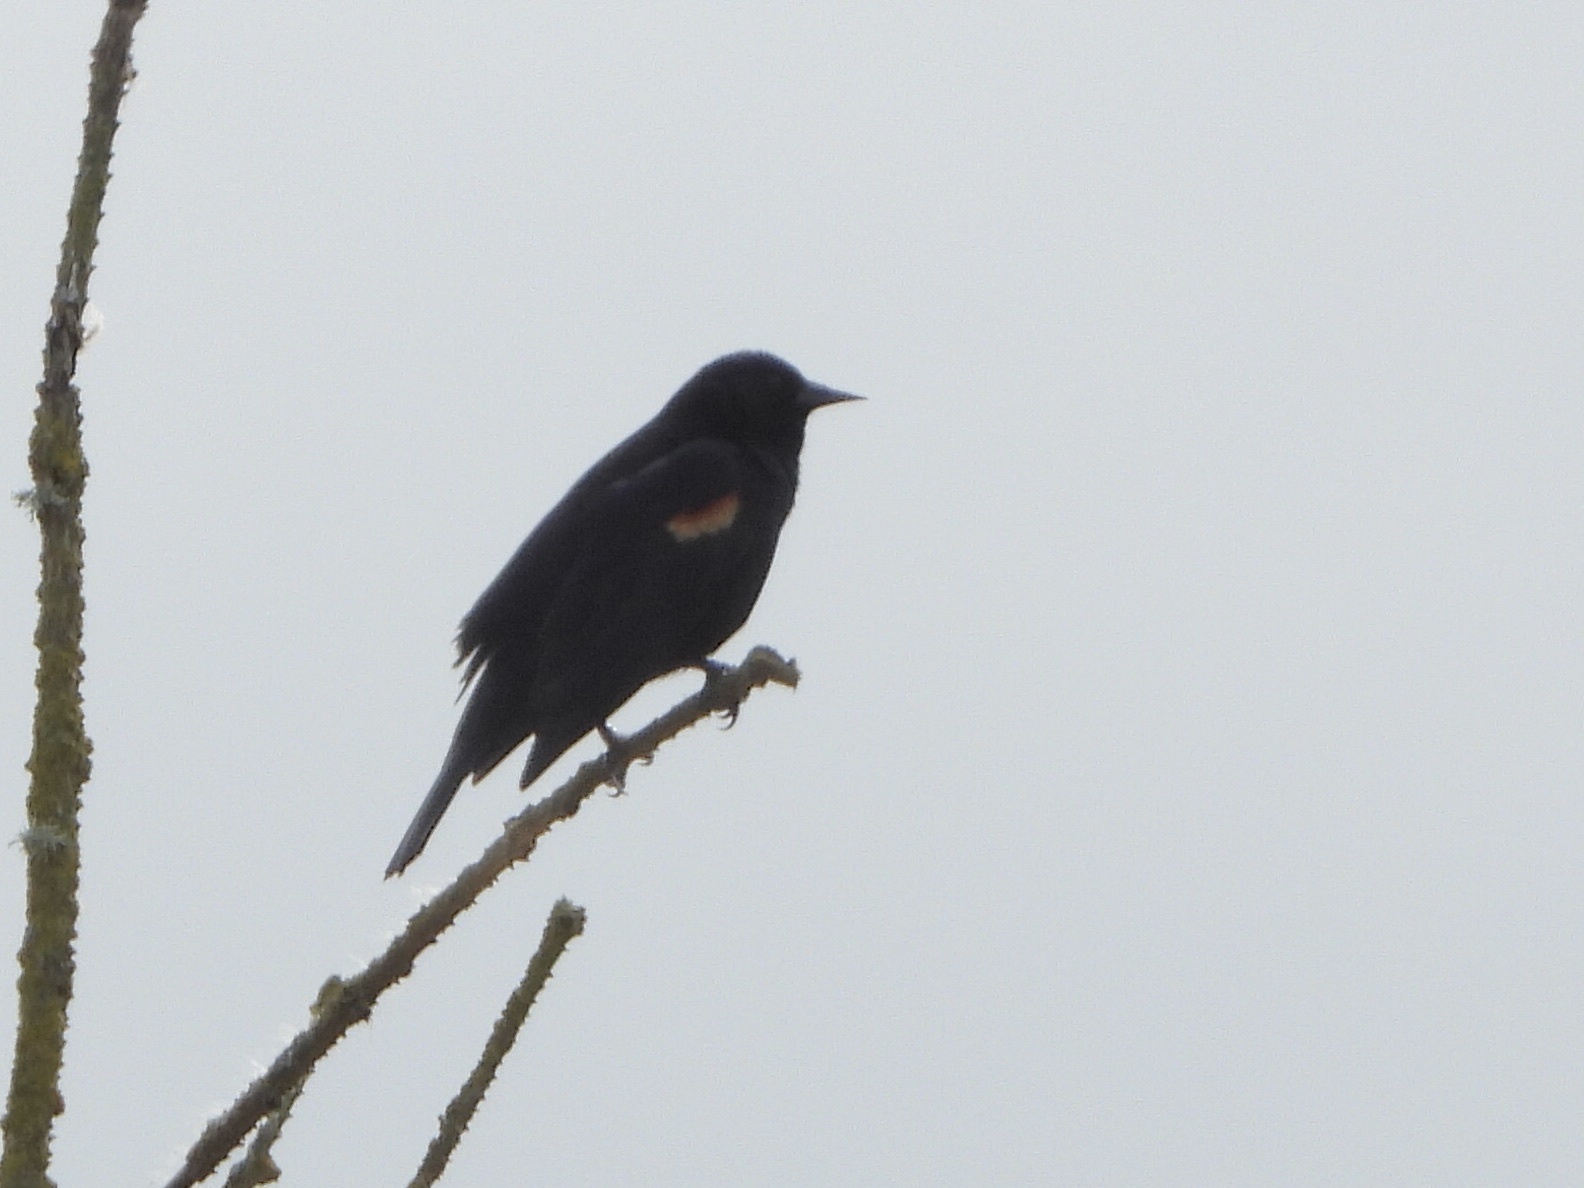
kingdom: Animalia
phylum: Chordata
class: Aves
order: Passeriformes
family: Icteridae
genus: Agelaius
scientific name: Agelaius phoeniceus
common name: Red-winged blackbird
